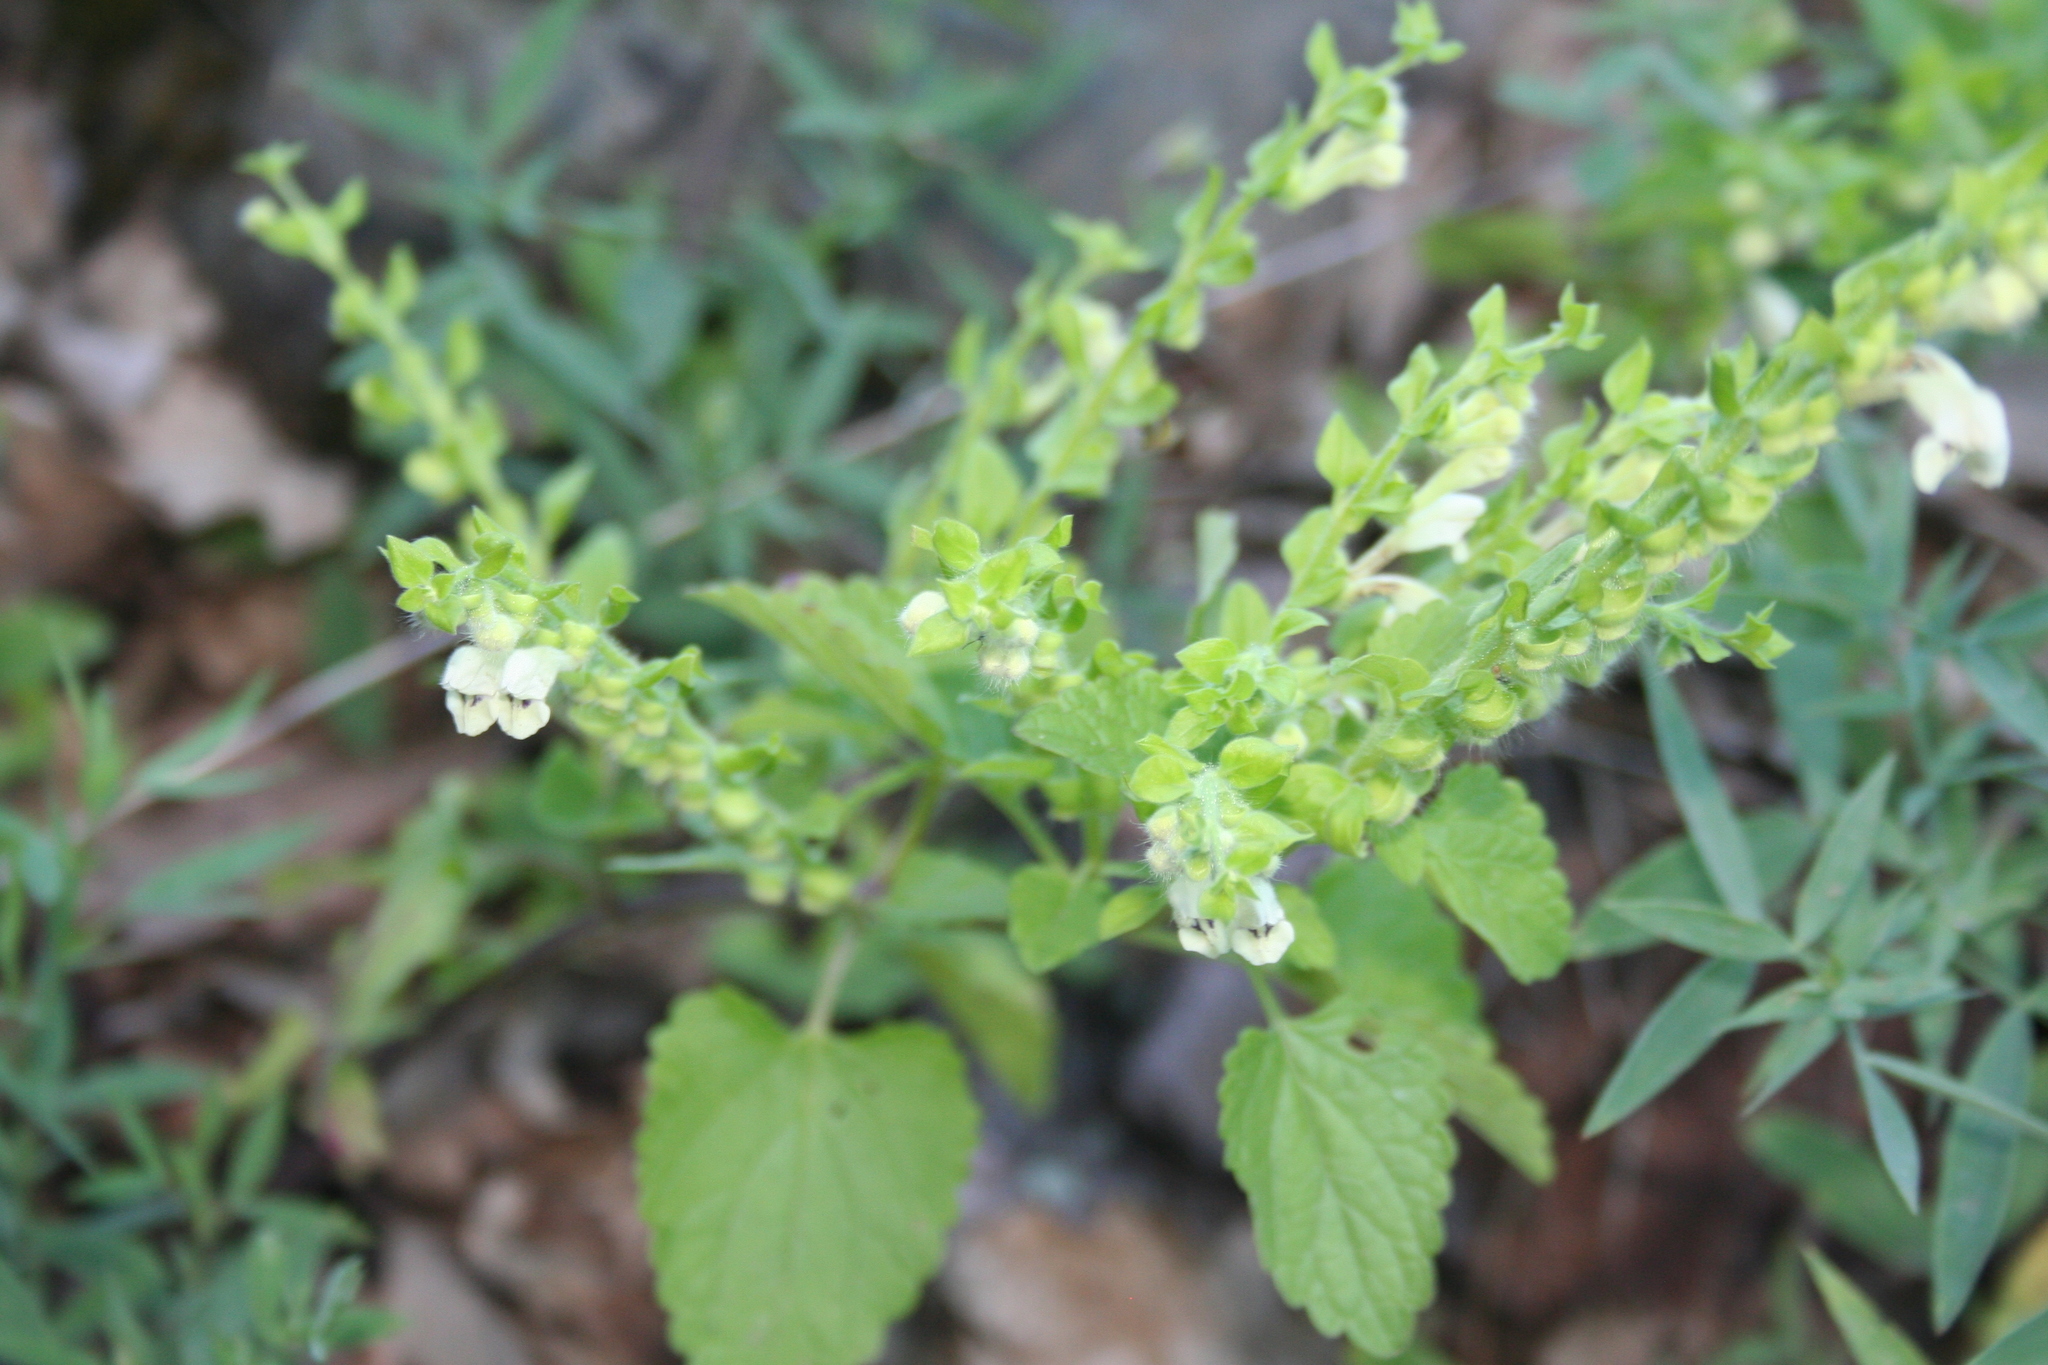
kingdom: Plantae
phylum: Tracheophyta
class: Magnoliopsida
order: Lamiales
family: Lamiaceae
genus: Scutellaria
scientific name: Scutellaria albida
